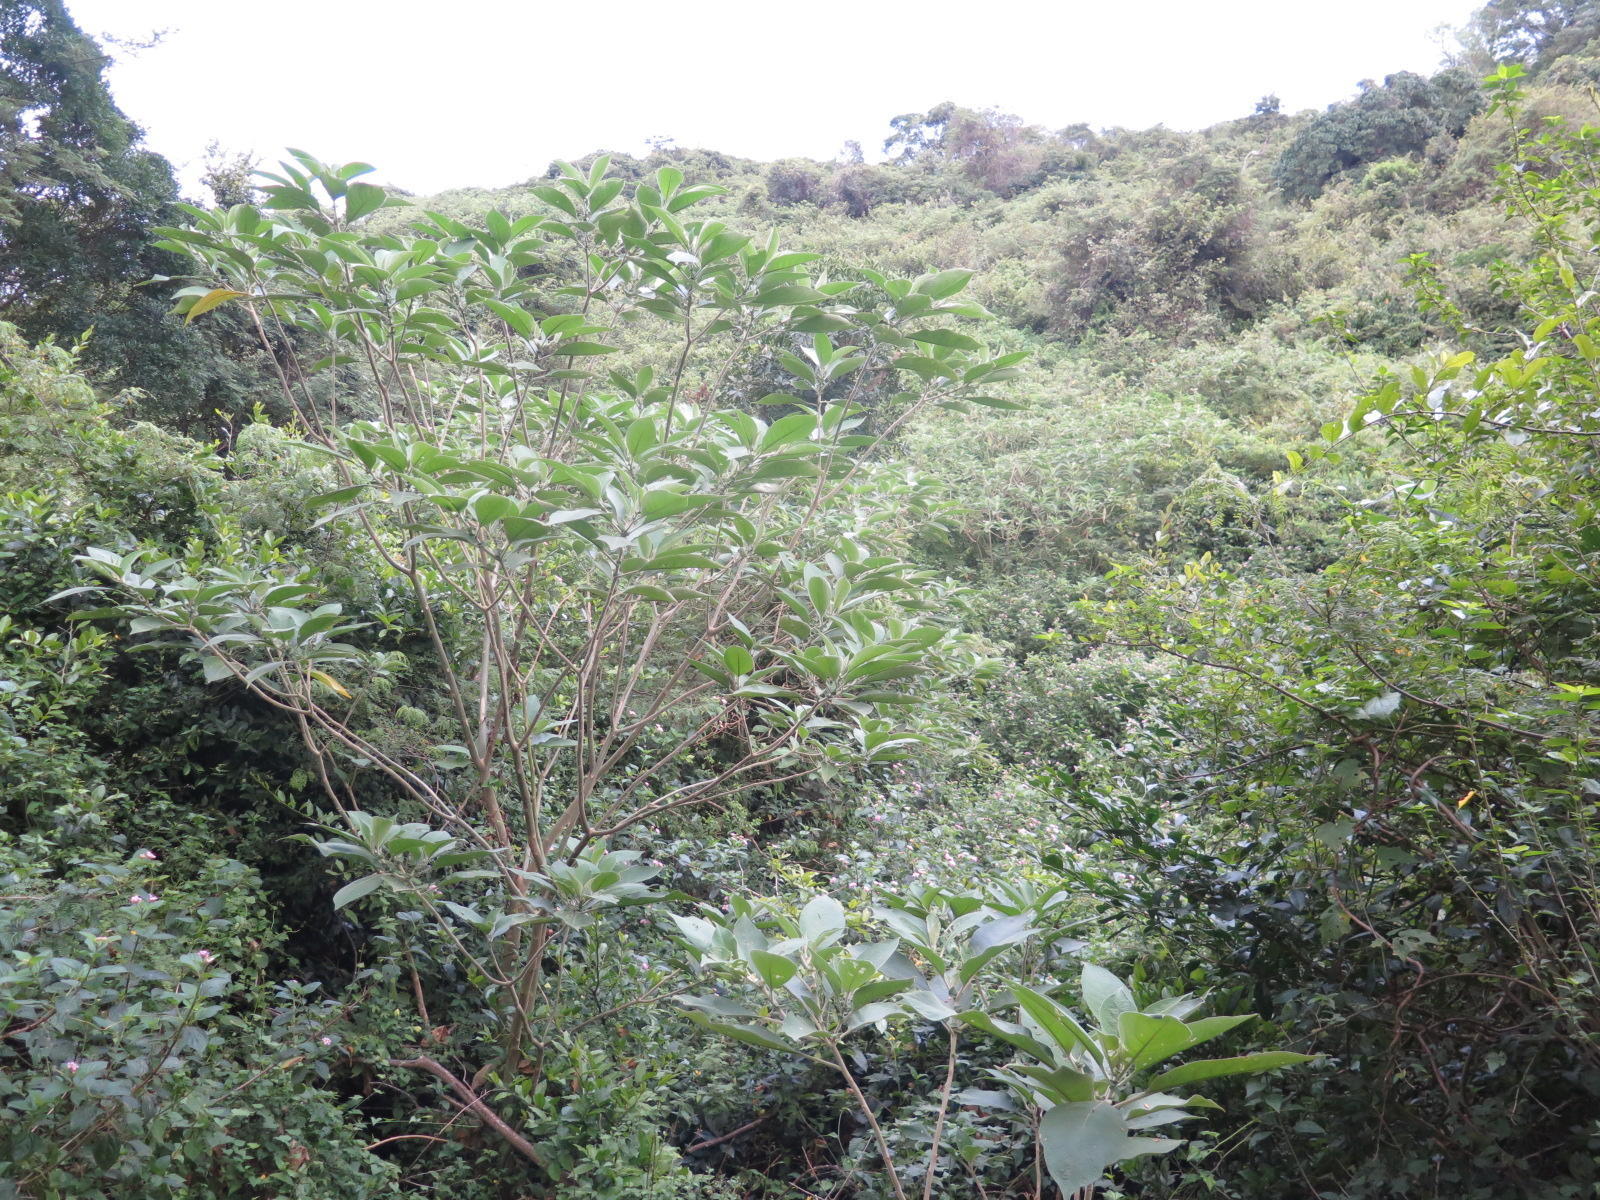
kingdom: Plantae
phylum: Tracheophyta
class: Magnoliopsida
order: Solanales
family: Solanaceae
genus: Solanum
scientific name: Solanum mauritianum
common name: Earleaf nightshade
